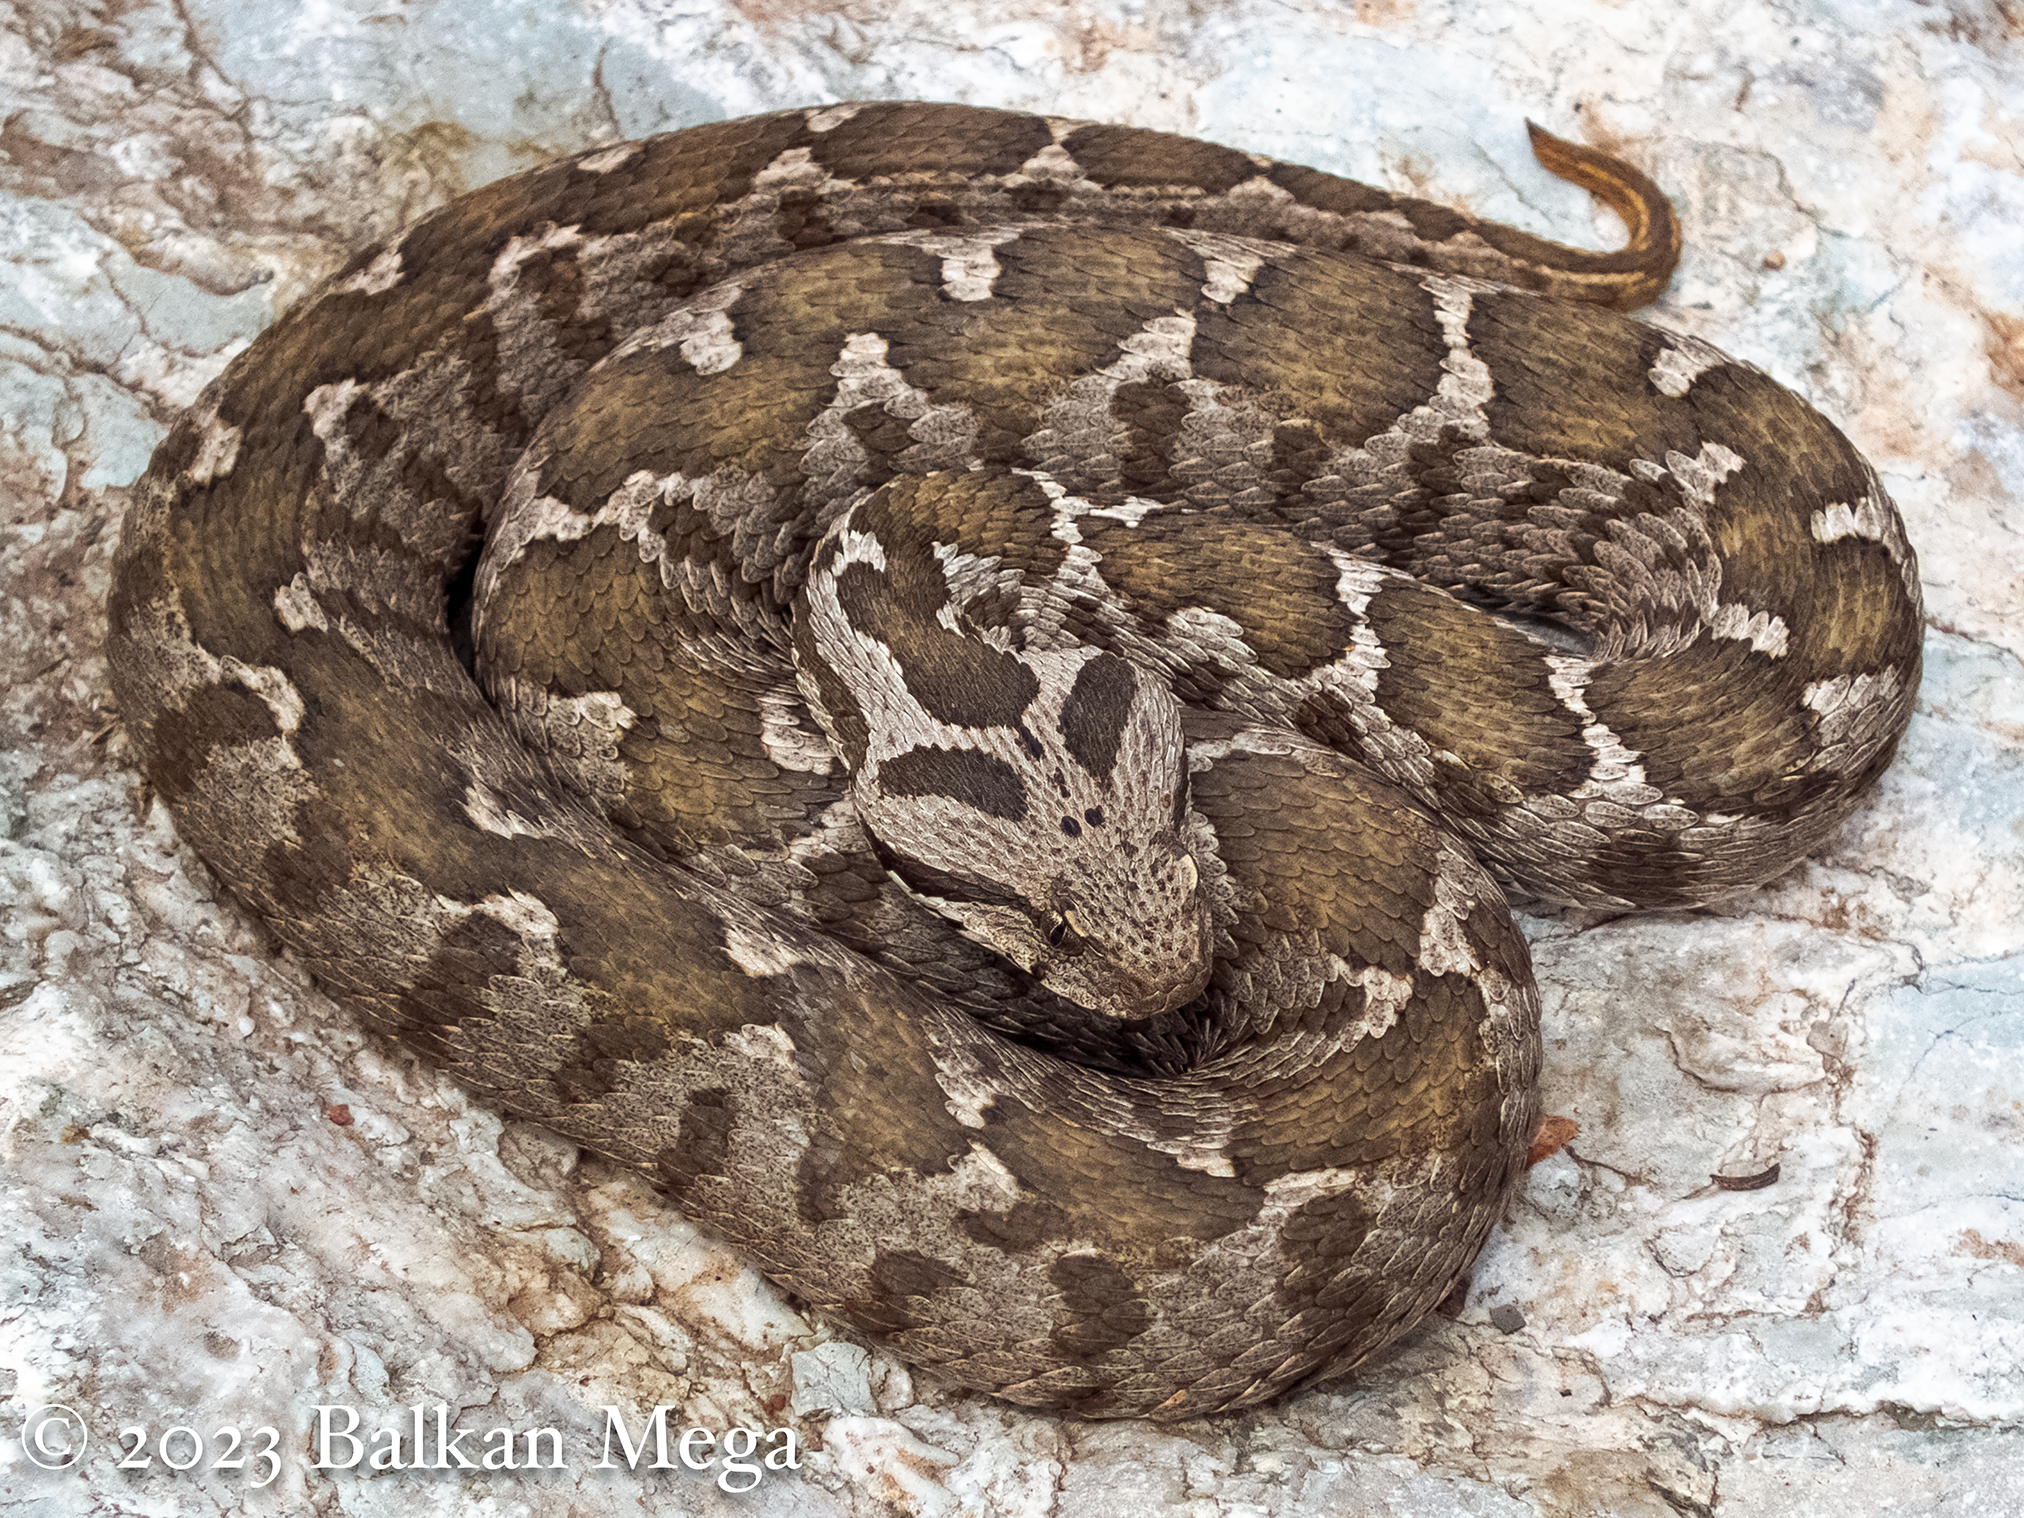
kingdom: Animalia
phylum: Chordata
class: Squamata
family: Viperidae
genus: Montivipera
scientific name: Montivipera xanthina
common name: Ottoman viper
